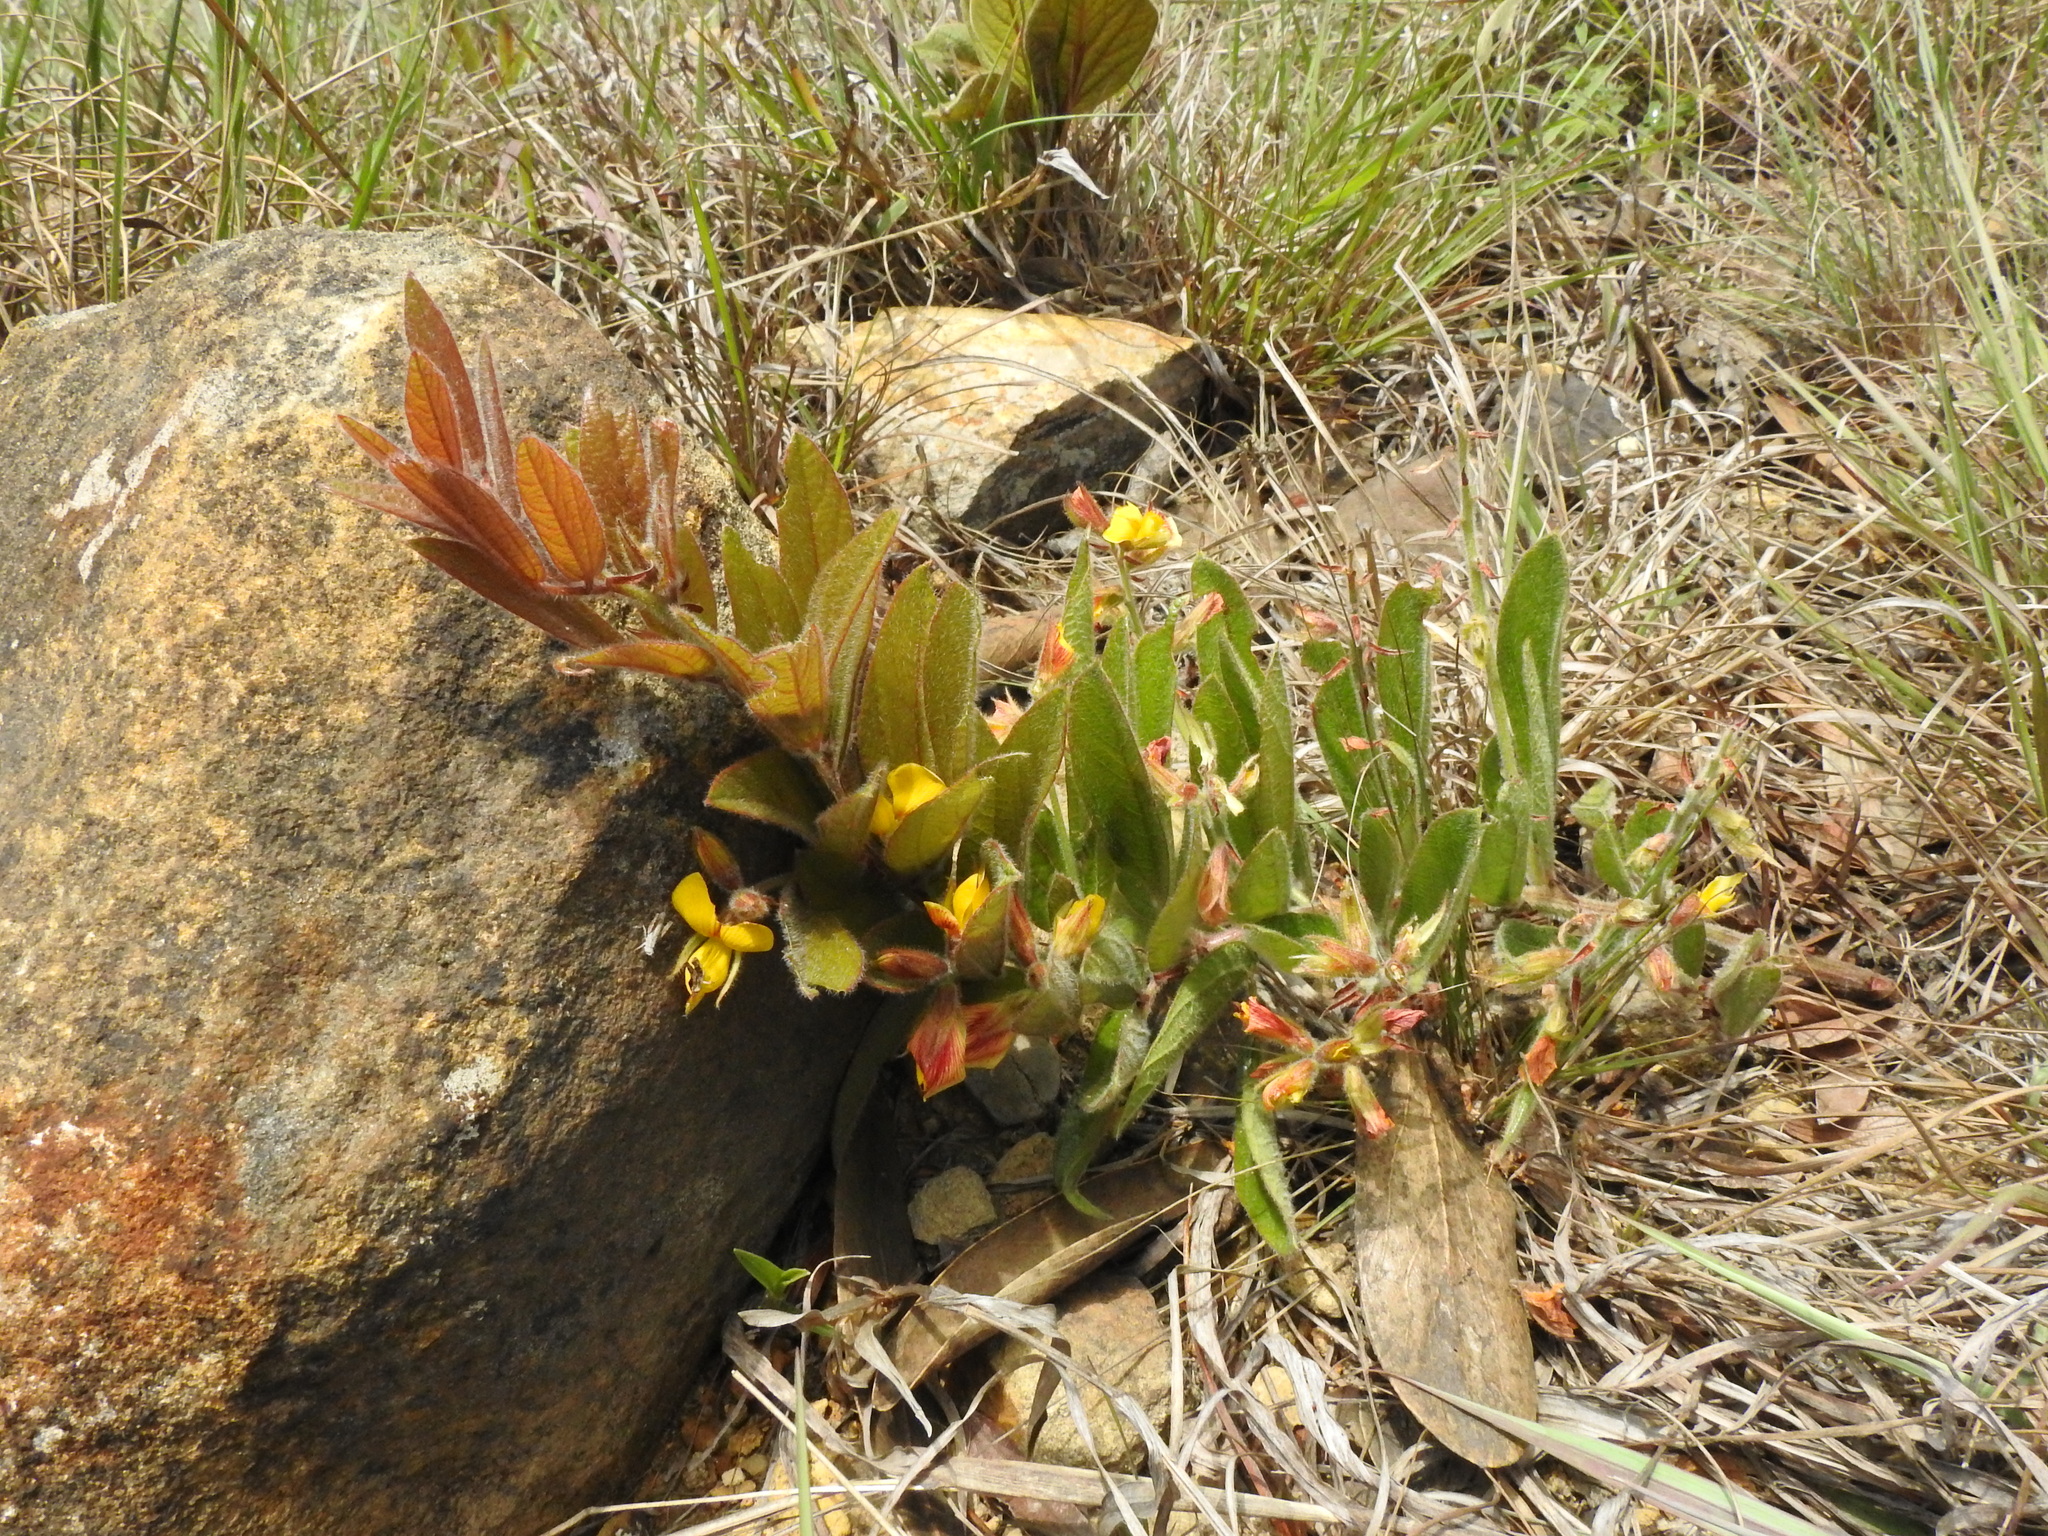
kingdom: Plantae
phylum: Tracheophyta
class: Magnoliopsida
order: Fabales
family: Fabaceae
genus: Rhynchosia
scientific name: Rhynchosia angulosa
